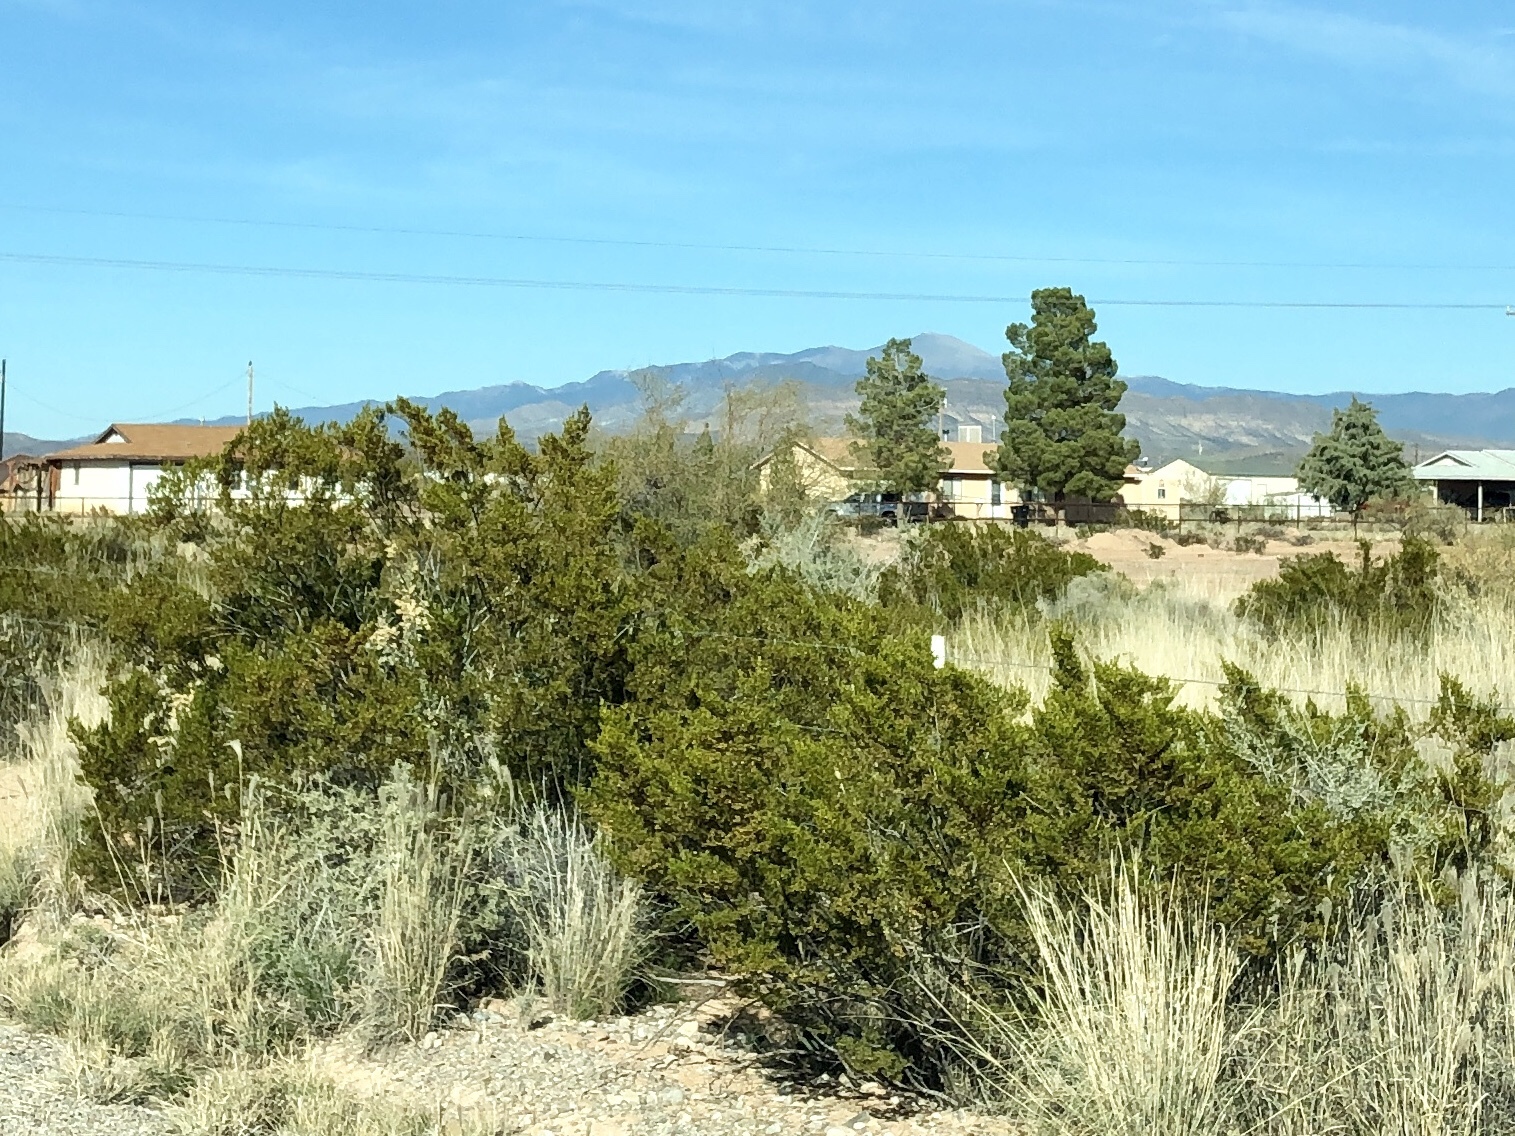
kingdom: Plantae
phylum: Tracheophyta
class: Magnoliopsida
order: Zygophyllales
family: Zygophyllaceae
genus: Larrea
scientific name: Larrea tridentata
